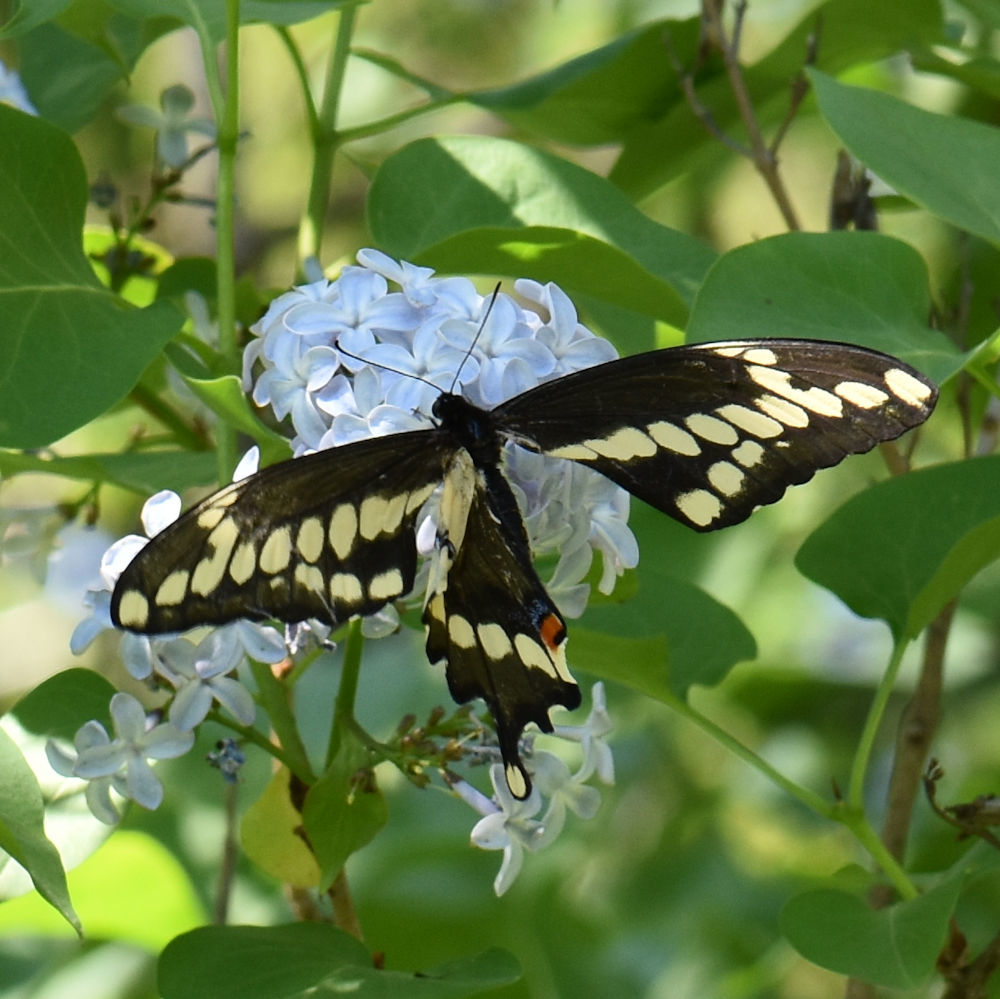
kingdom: Animalia
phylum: Arthropoda
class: Insecta
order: Lepidoptera
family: Papilionidae
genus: Papilio
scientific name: Papilio cresphontes
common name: Giant swallowtail
